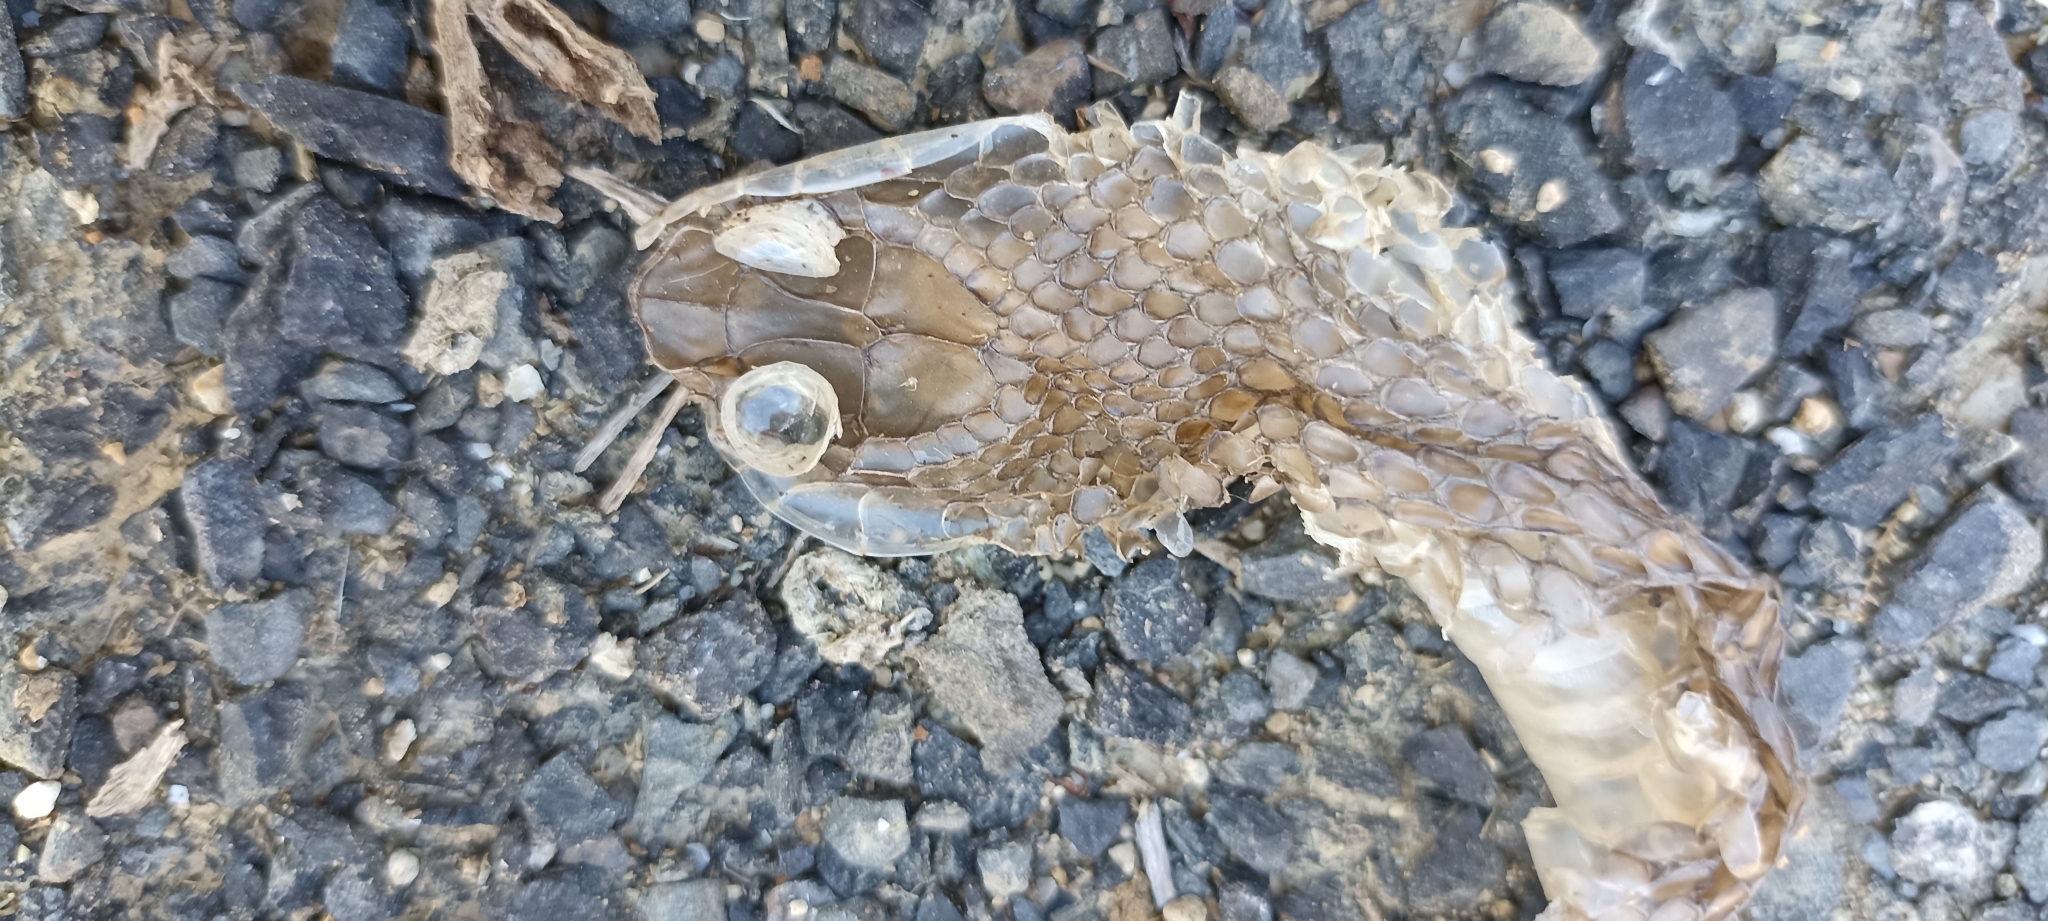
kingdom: Animalia
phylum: Chordata
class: Squamata
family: Psammophiidae
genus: Malpolon
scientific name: Malpolon monspessulanus
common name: Montpellier snake
